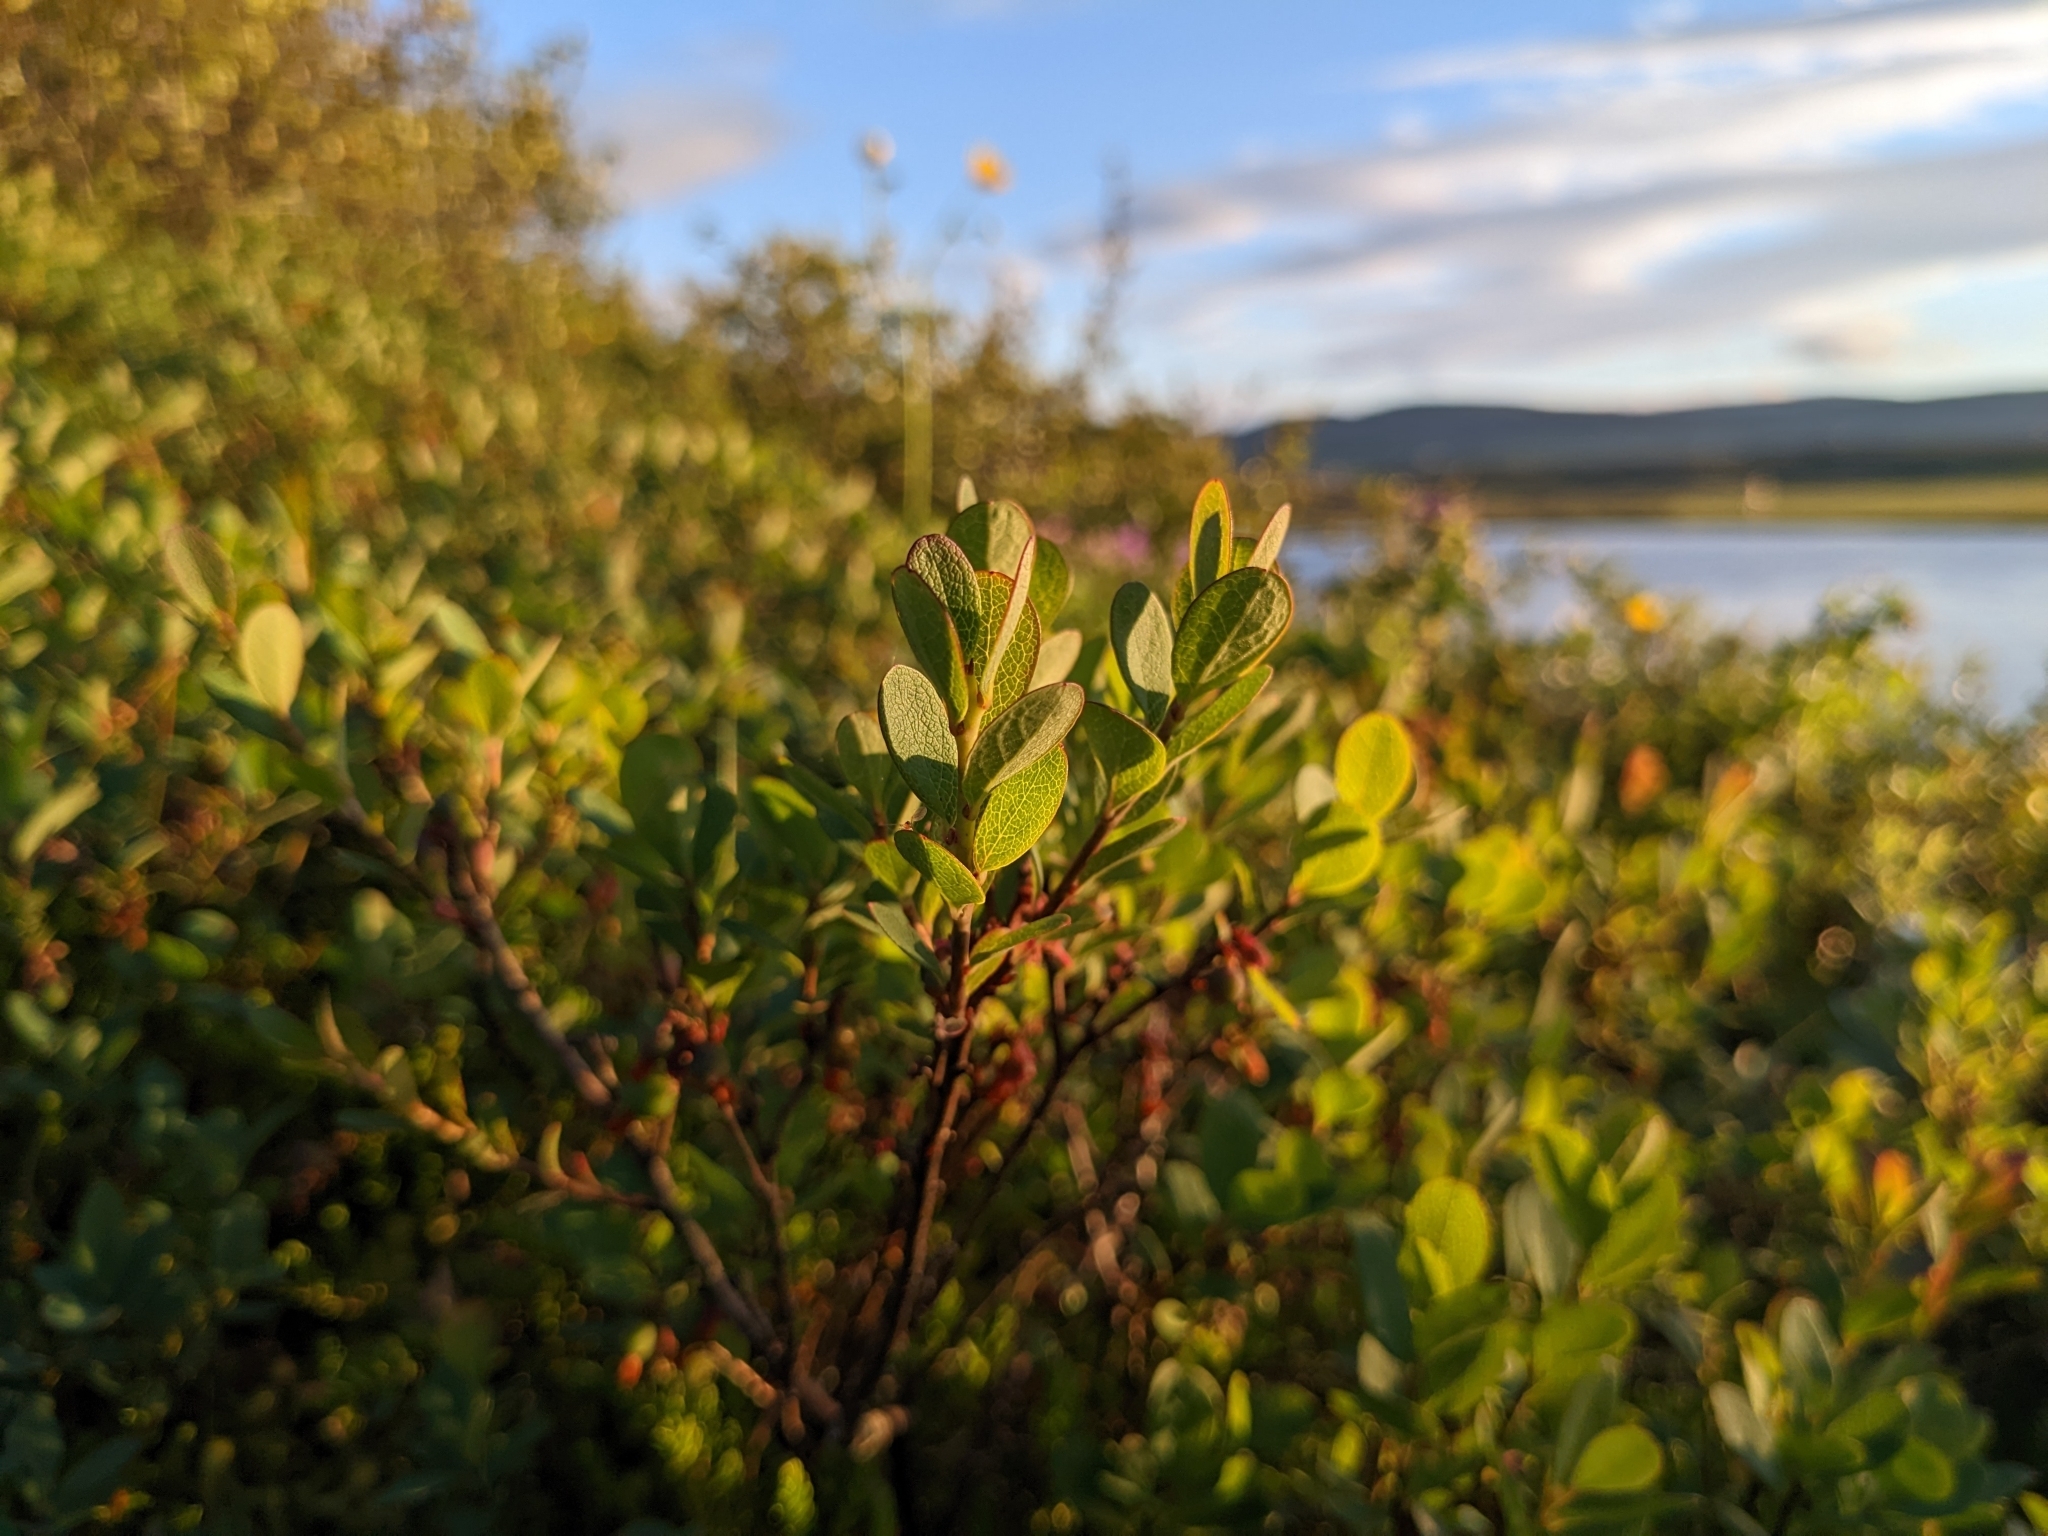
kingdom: Plantae
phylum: Tracheophyta
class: Magnoliopsida
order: Ericales
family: Ericaceae
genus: Vaccinium
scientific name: Vaccinium uliginosum
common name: Bog bilberry
